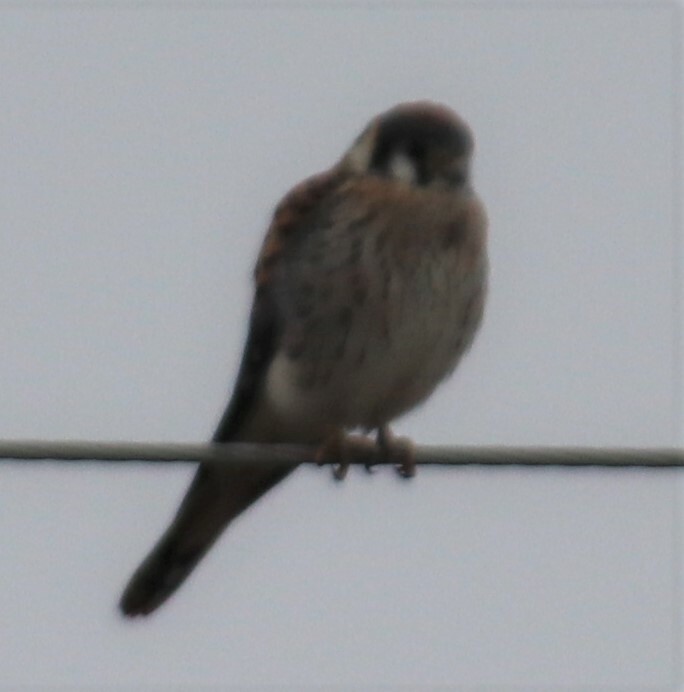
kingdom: Animalia
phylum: Chordata
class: Aves
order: Falconiformes
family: Falconidae
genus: Falco
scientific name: Falco sparverius
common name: American kestrel
